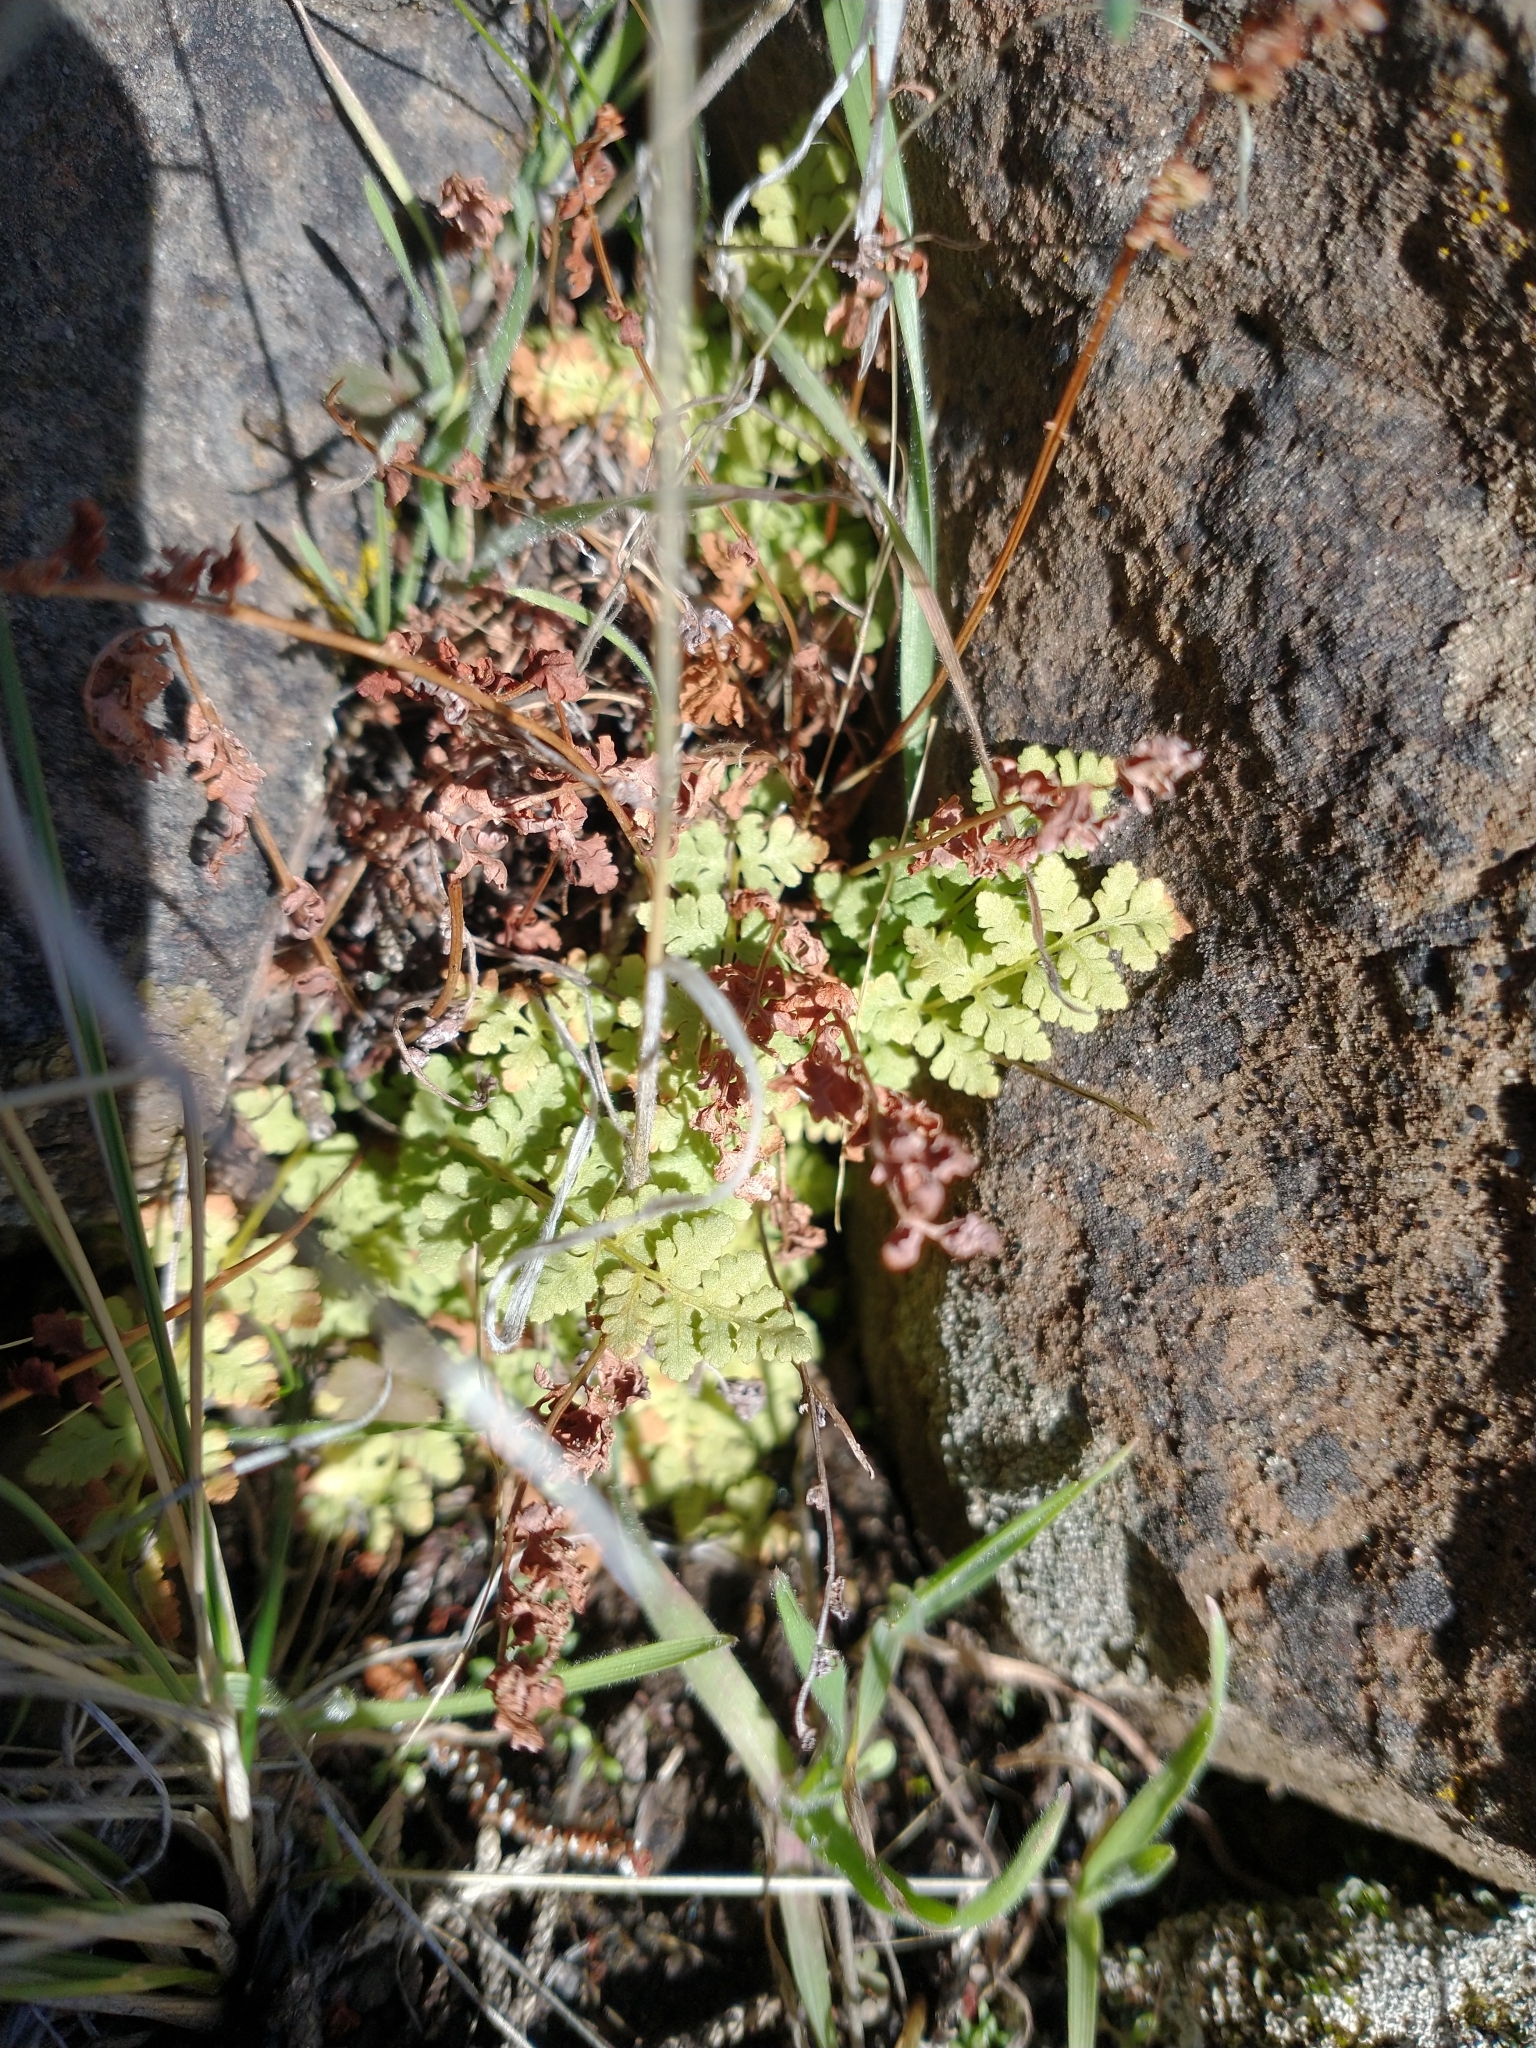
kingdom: Plantae
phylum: Tracheophyta
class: Polypodiopsida
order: Polypodiales
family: Woodsiaceae
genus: Physematium
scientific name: Physematium oreganum
